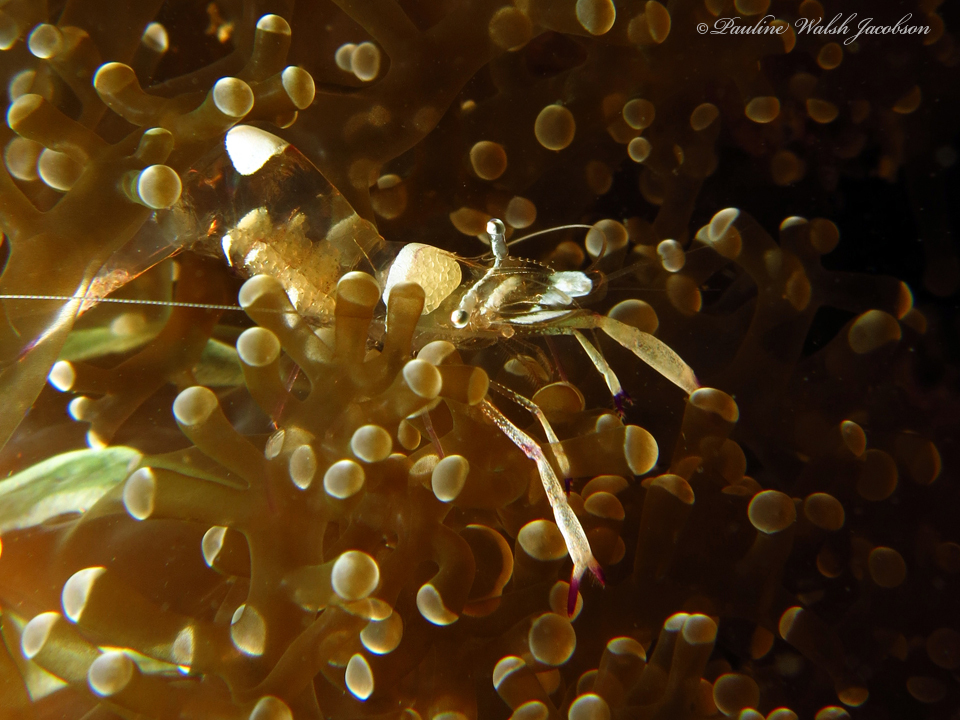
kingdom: Animalia
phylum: Arthropoda
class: Malacostraca
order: Decapoda
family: Palaemonidae
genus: Ancylomenes
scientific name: Ancylomenes magnificus
